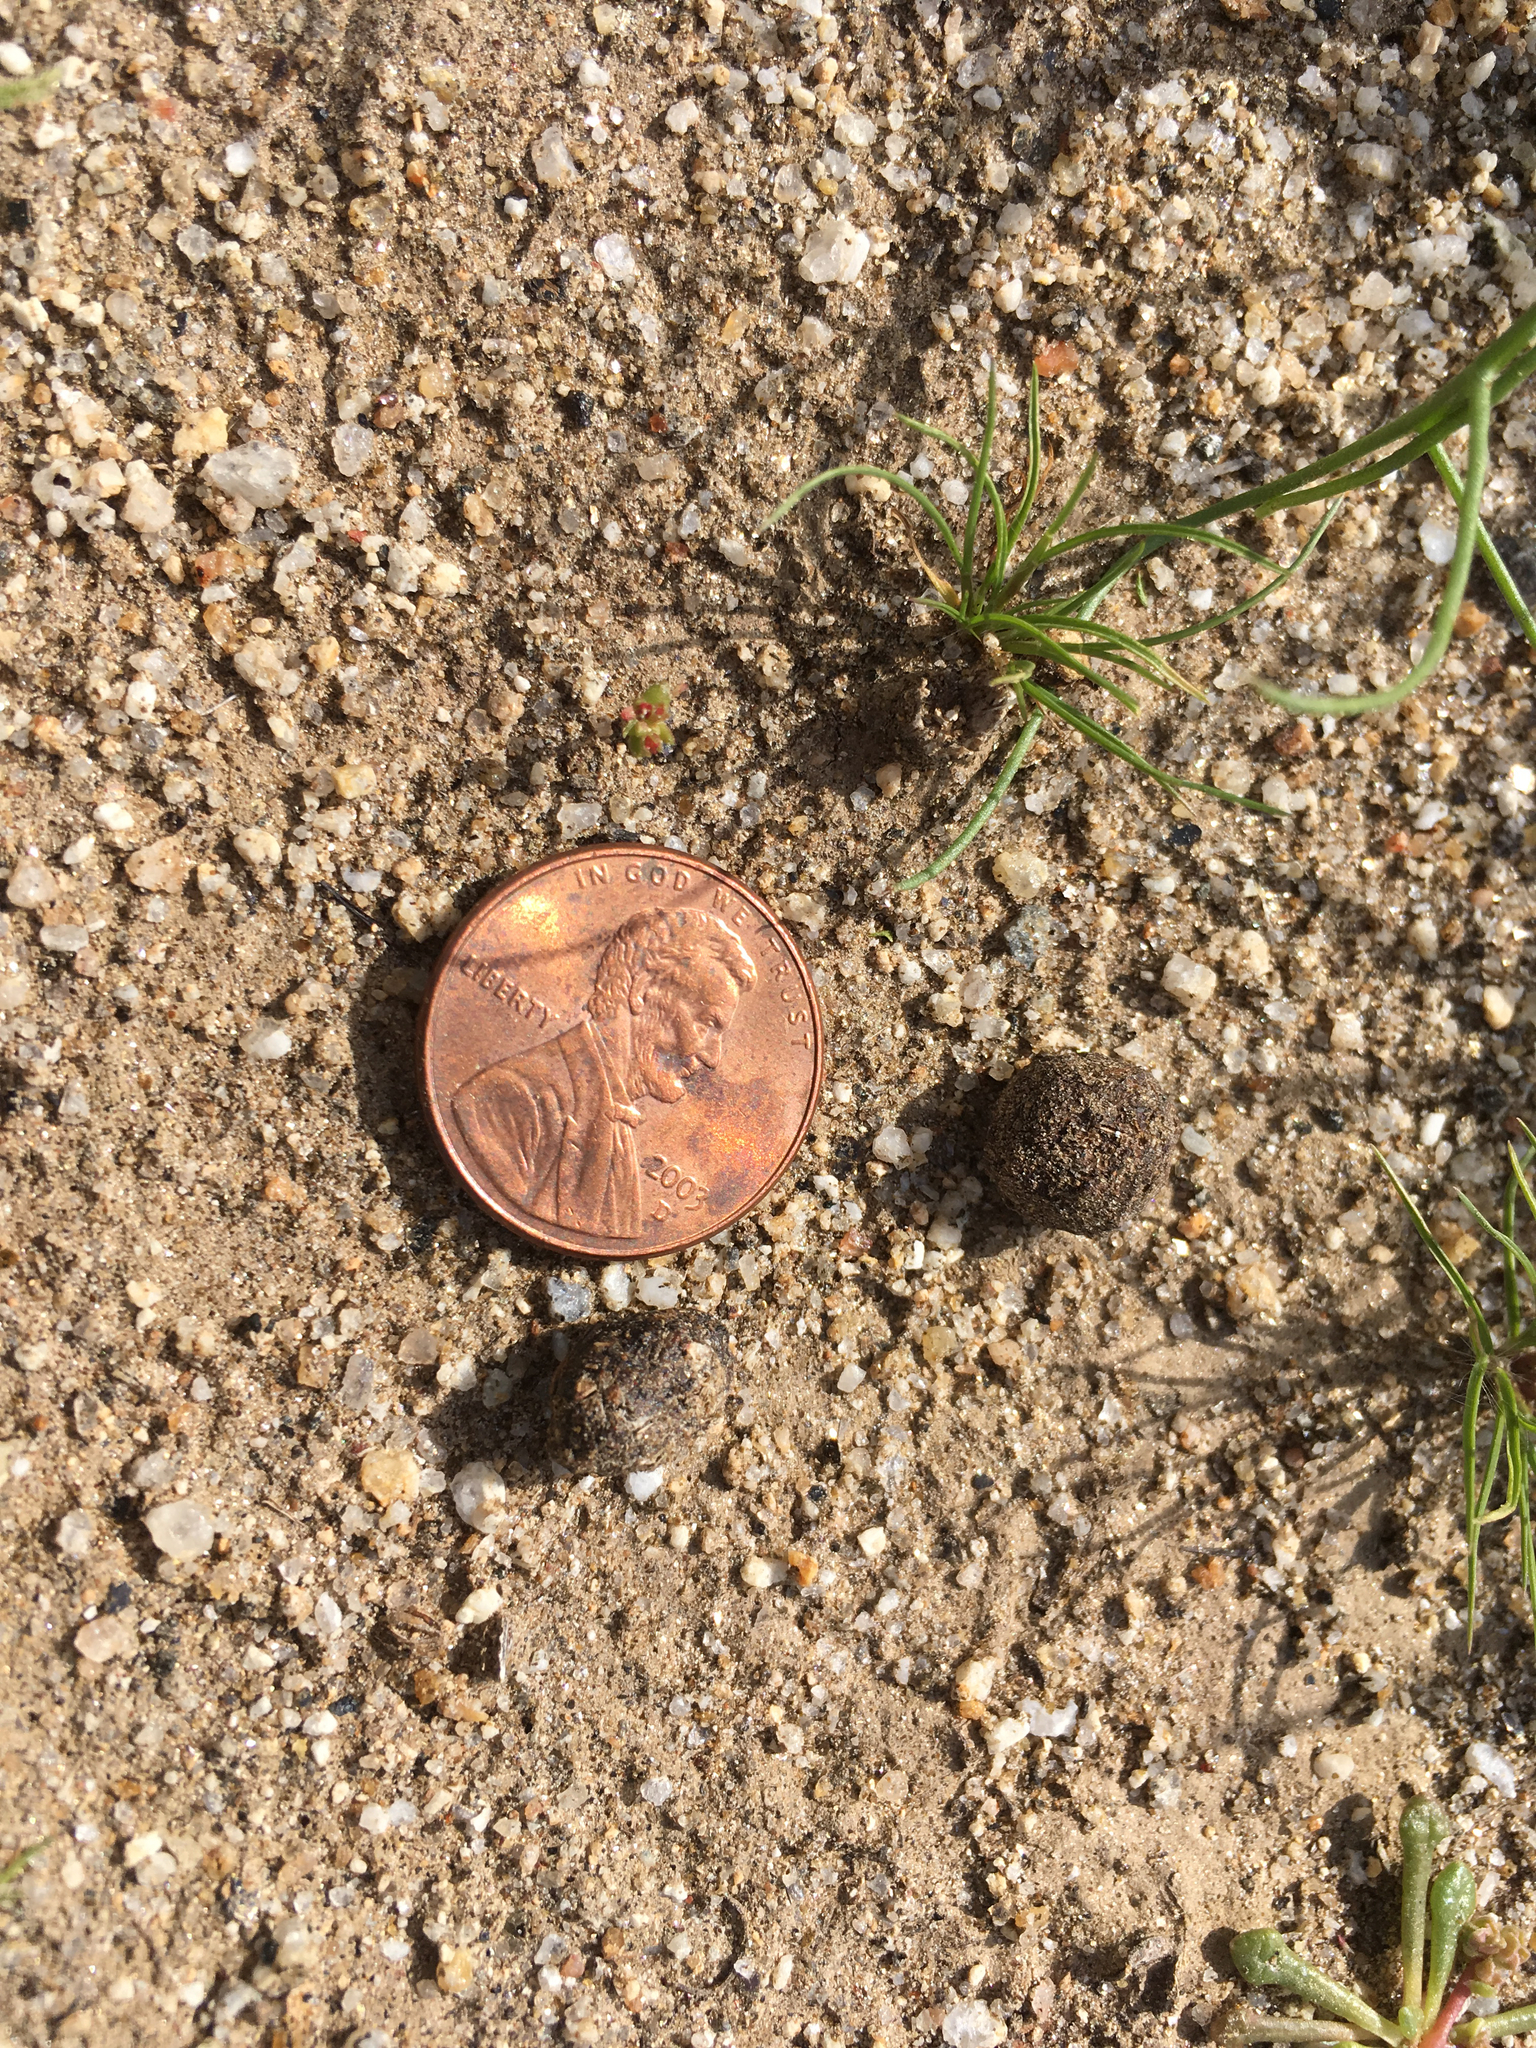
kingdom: Animalia
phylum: Chordata
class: Mammalia
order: Lagomorpha
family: Leporidae
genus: Sylvilagus
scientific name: Sylvilagus audubonii
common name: Desert cottontail
